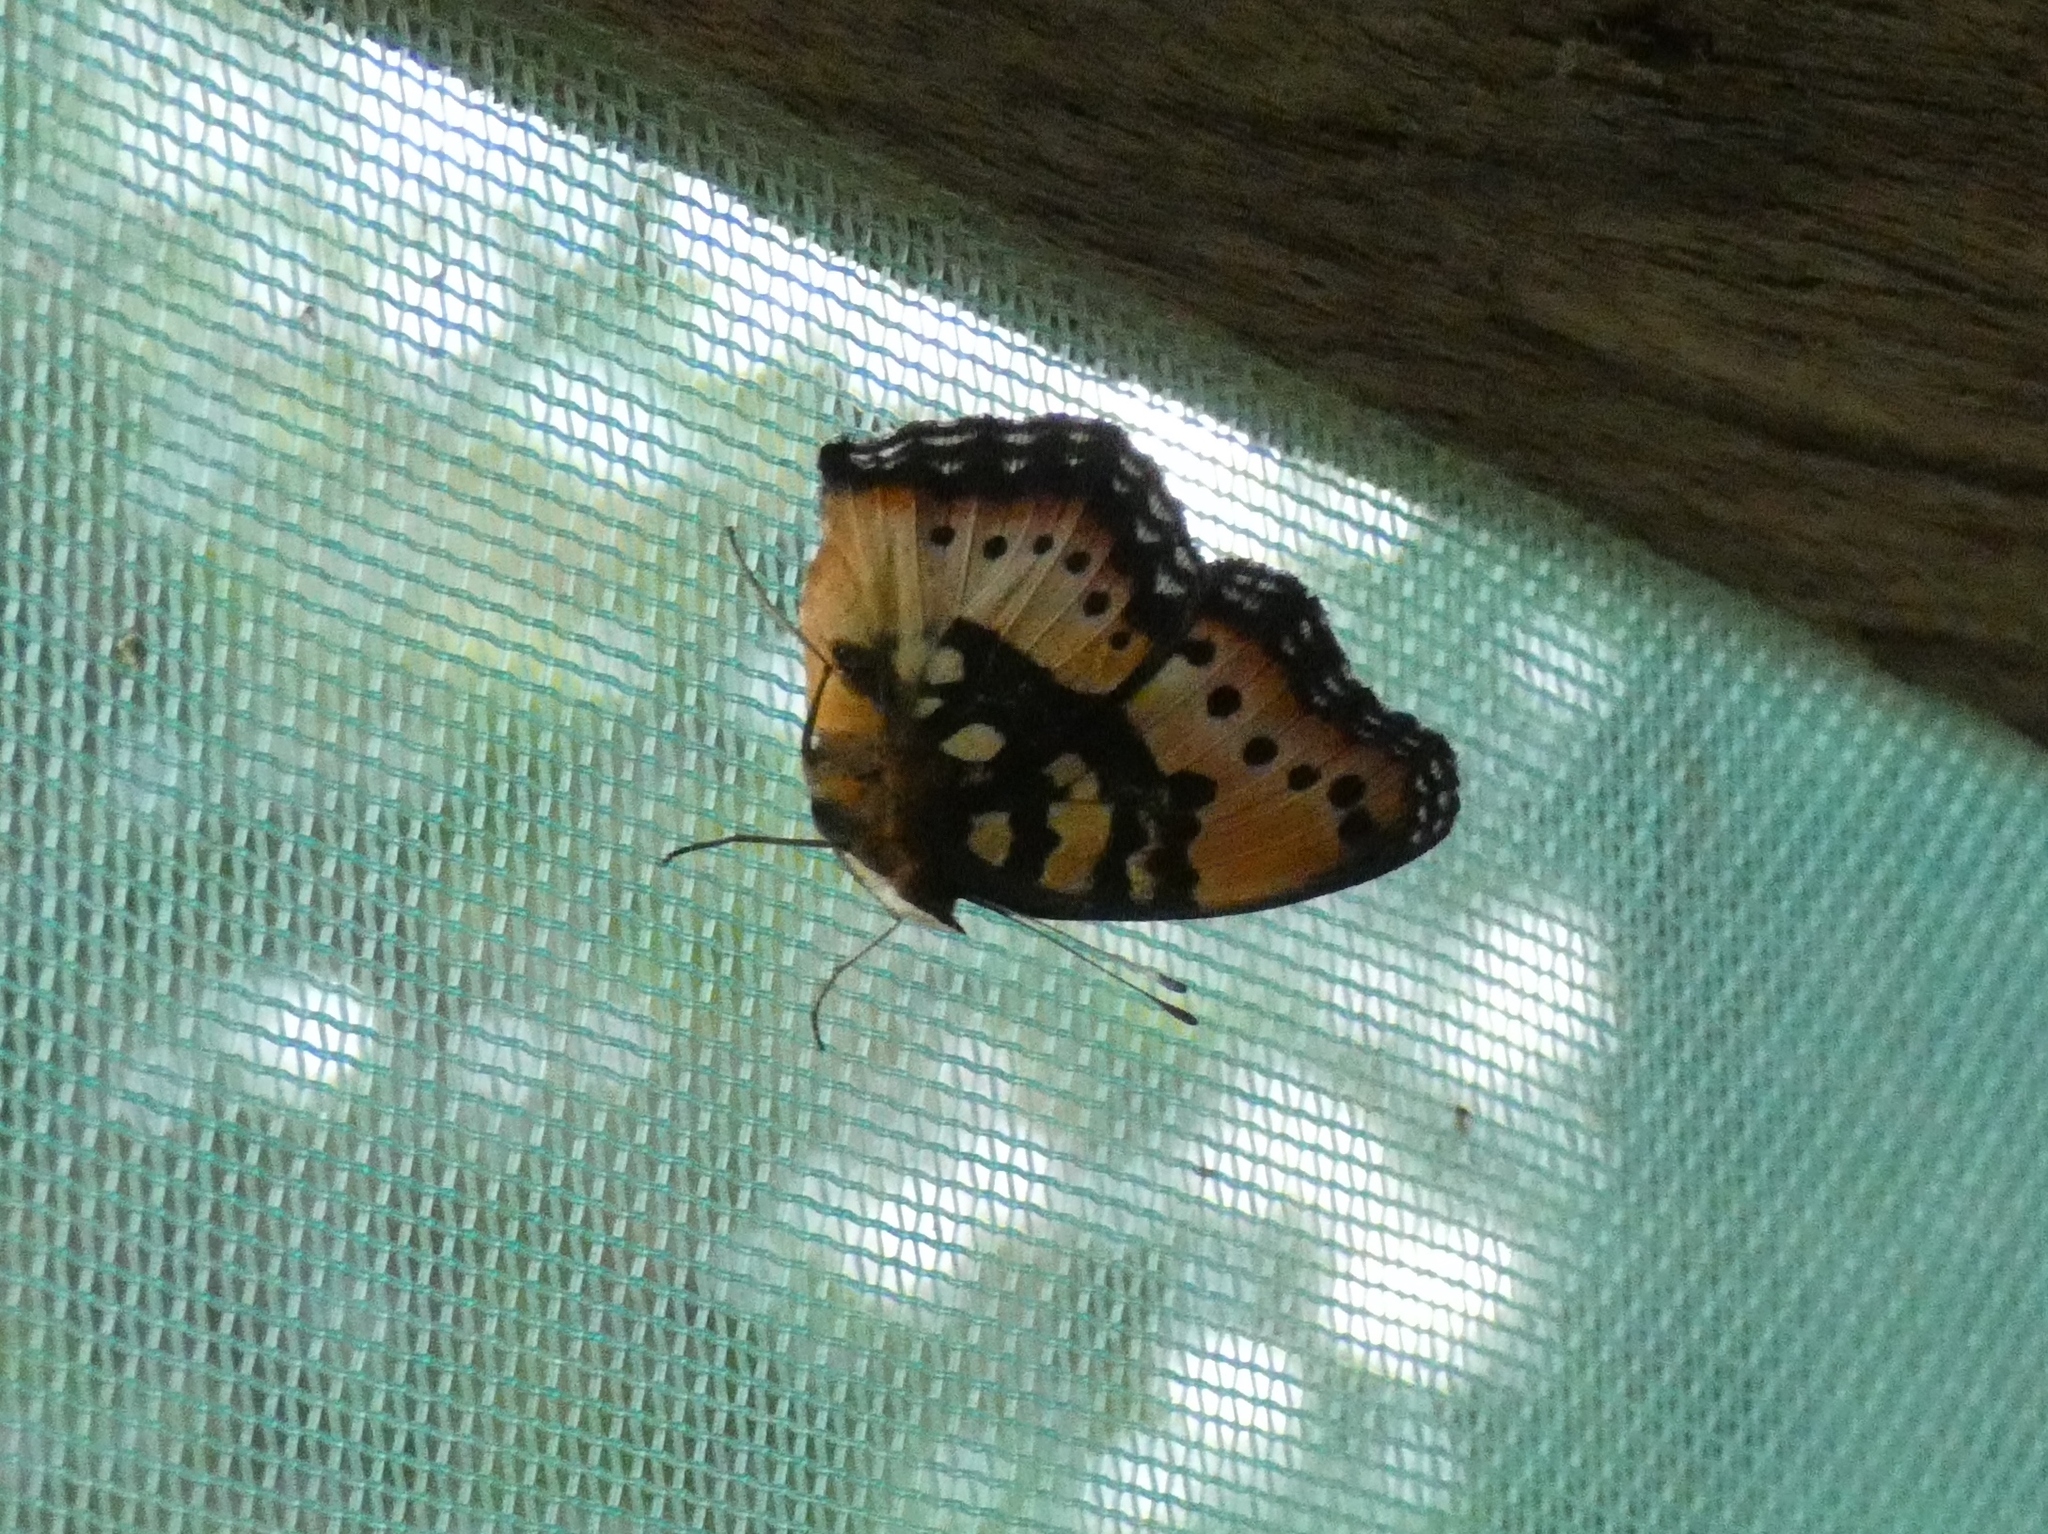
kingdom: Animalia
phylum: Arthropoda
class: Insecta
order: Lepidoptera
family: Nymphalidae
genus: Junonia
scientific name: Junonia antilope
